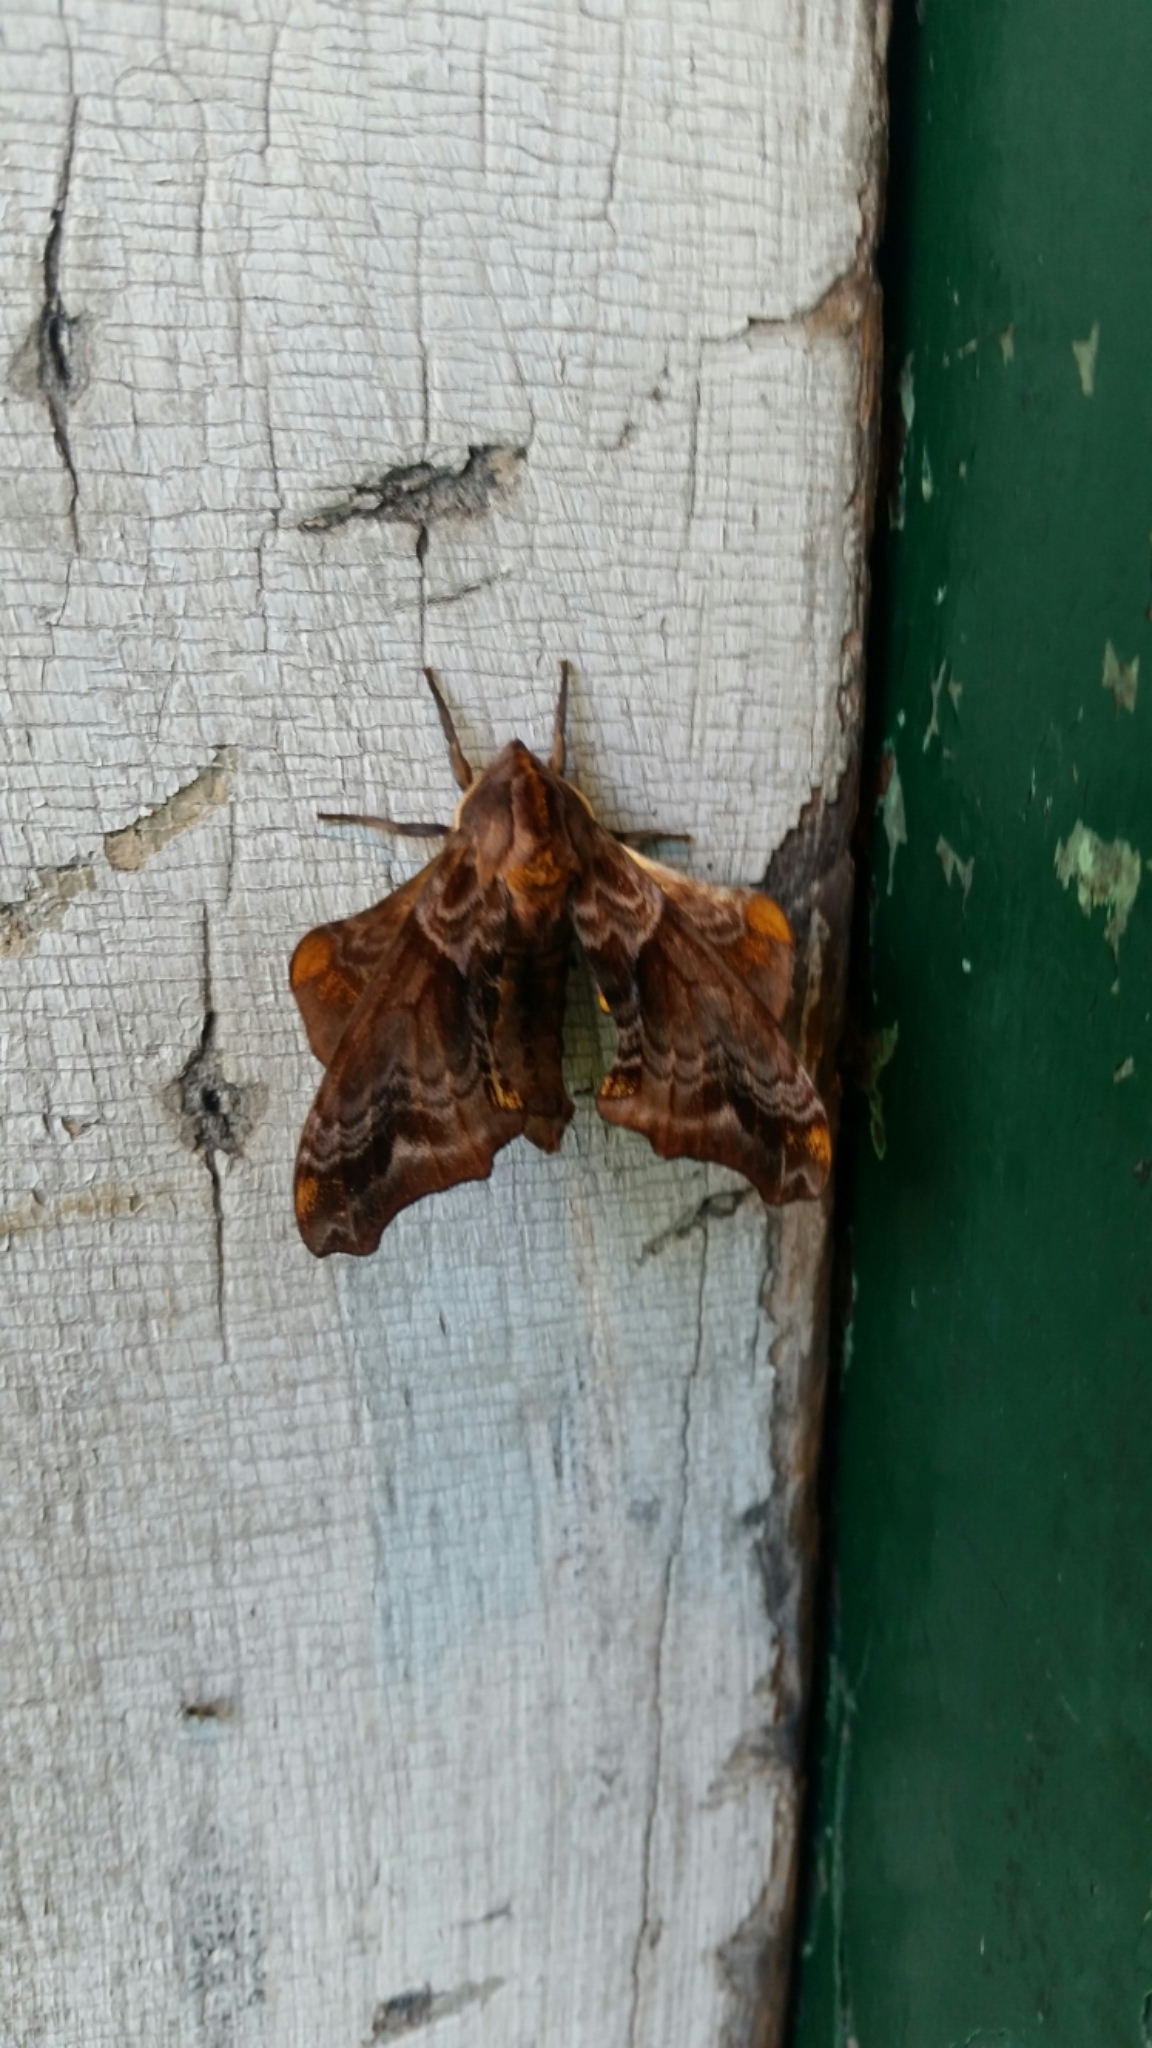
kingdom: Animalia
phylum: Arthropoda
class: Insecta
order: Lepidoptera
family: Sphingidae
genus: Paonias
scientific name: Paonias myops
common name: Small-eyed sphinx
